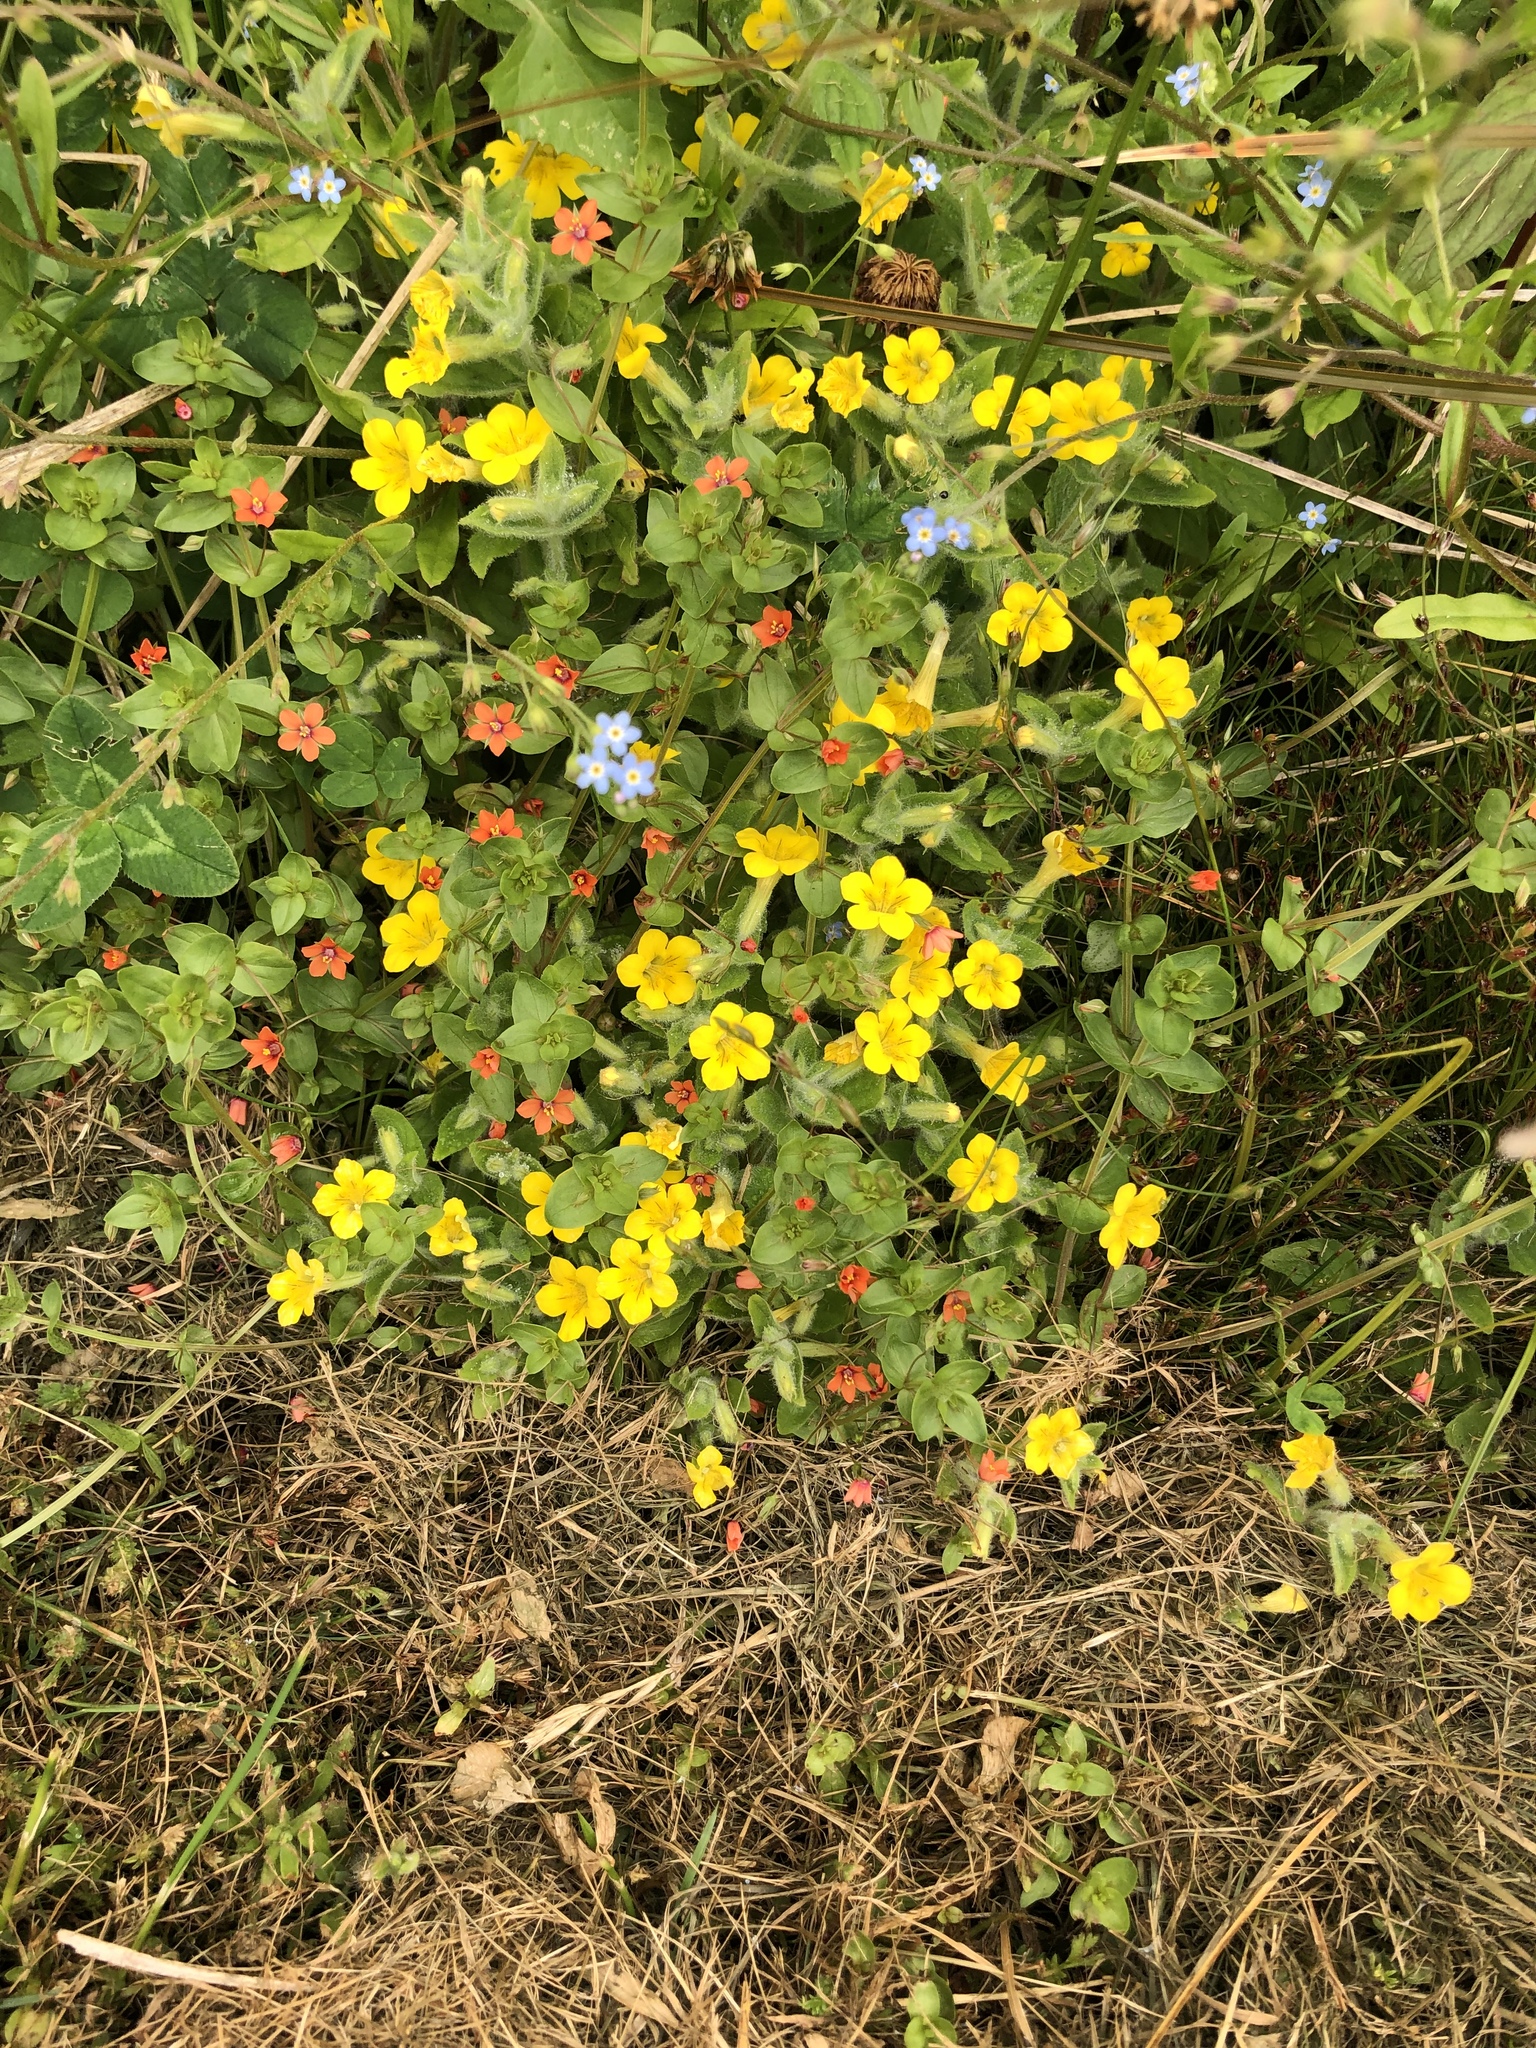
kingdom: Plantae
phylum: Tracheophyta
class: Magnoliopsida
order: Lamiales
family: Phrymaceae
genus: Erythranthe
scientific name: Erythranthe moschata
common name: Muskflower
